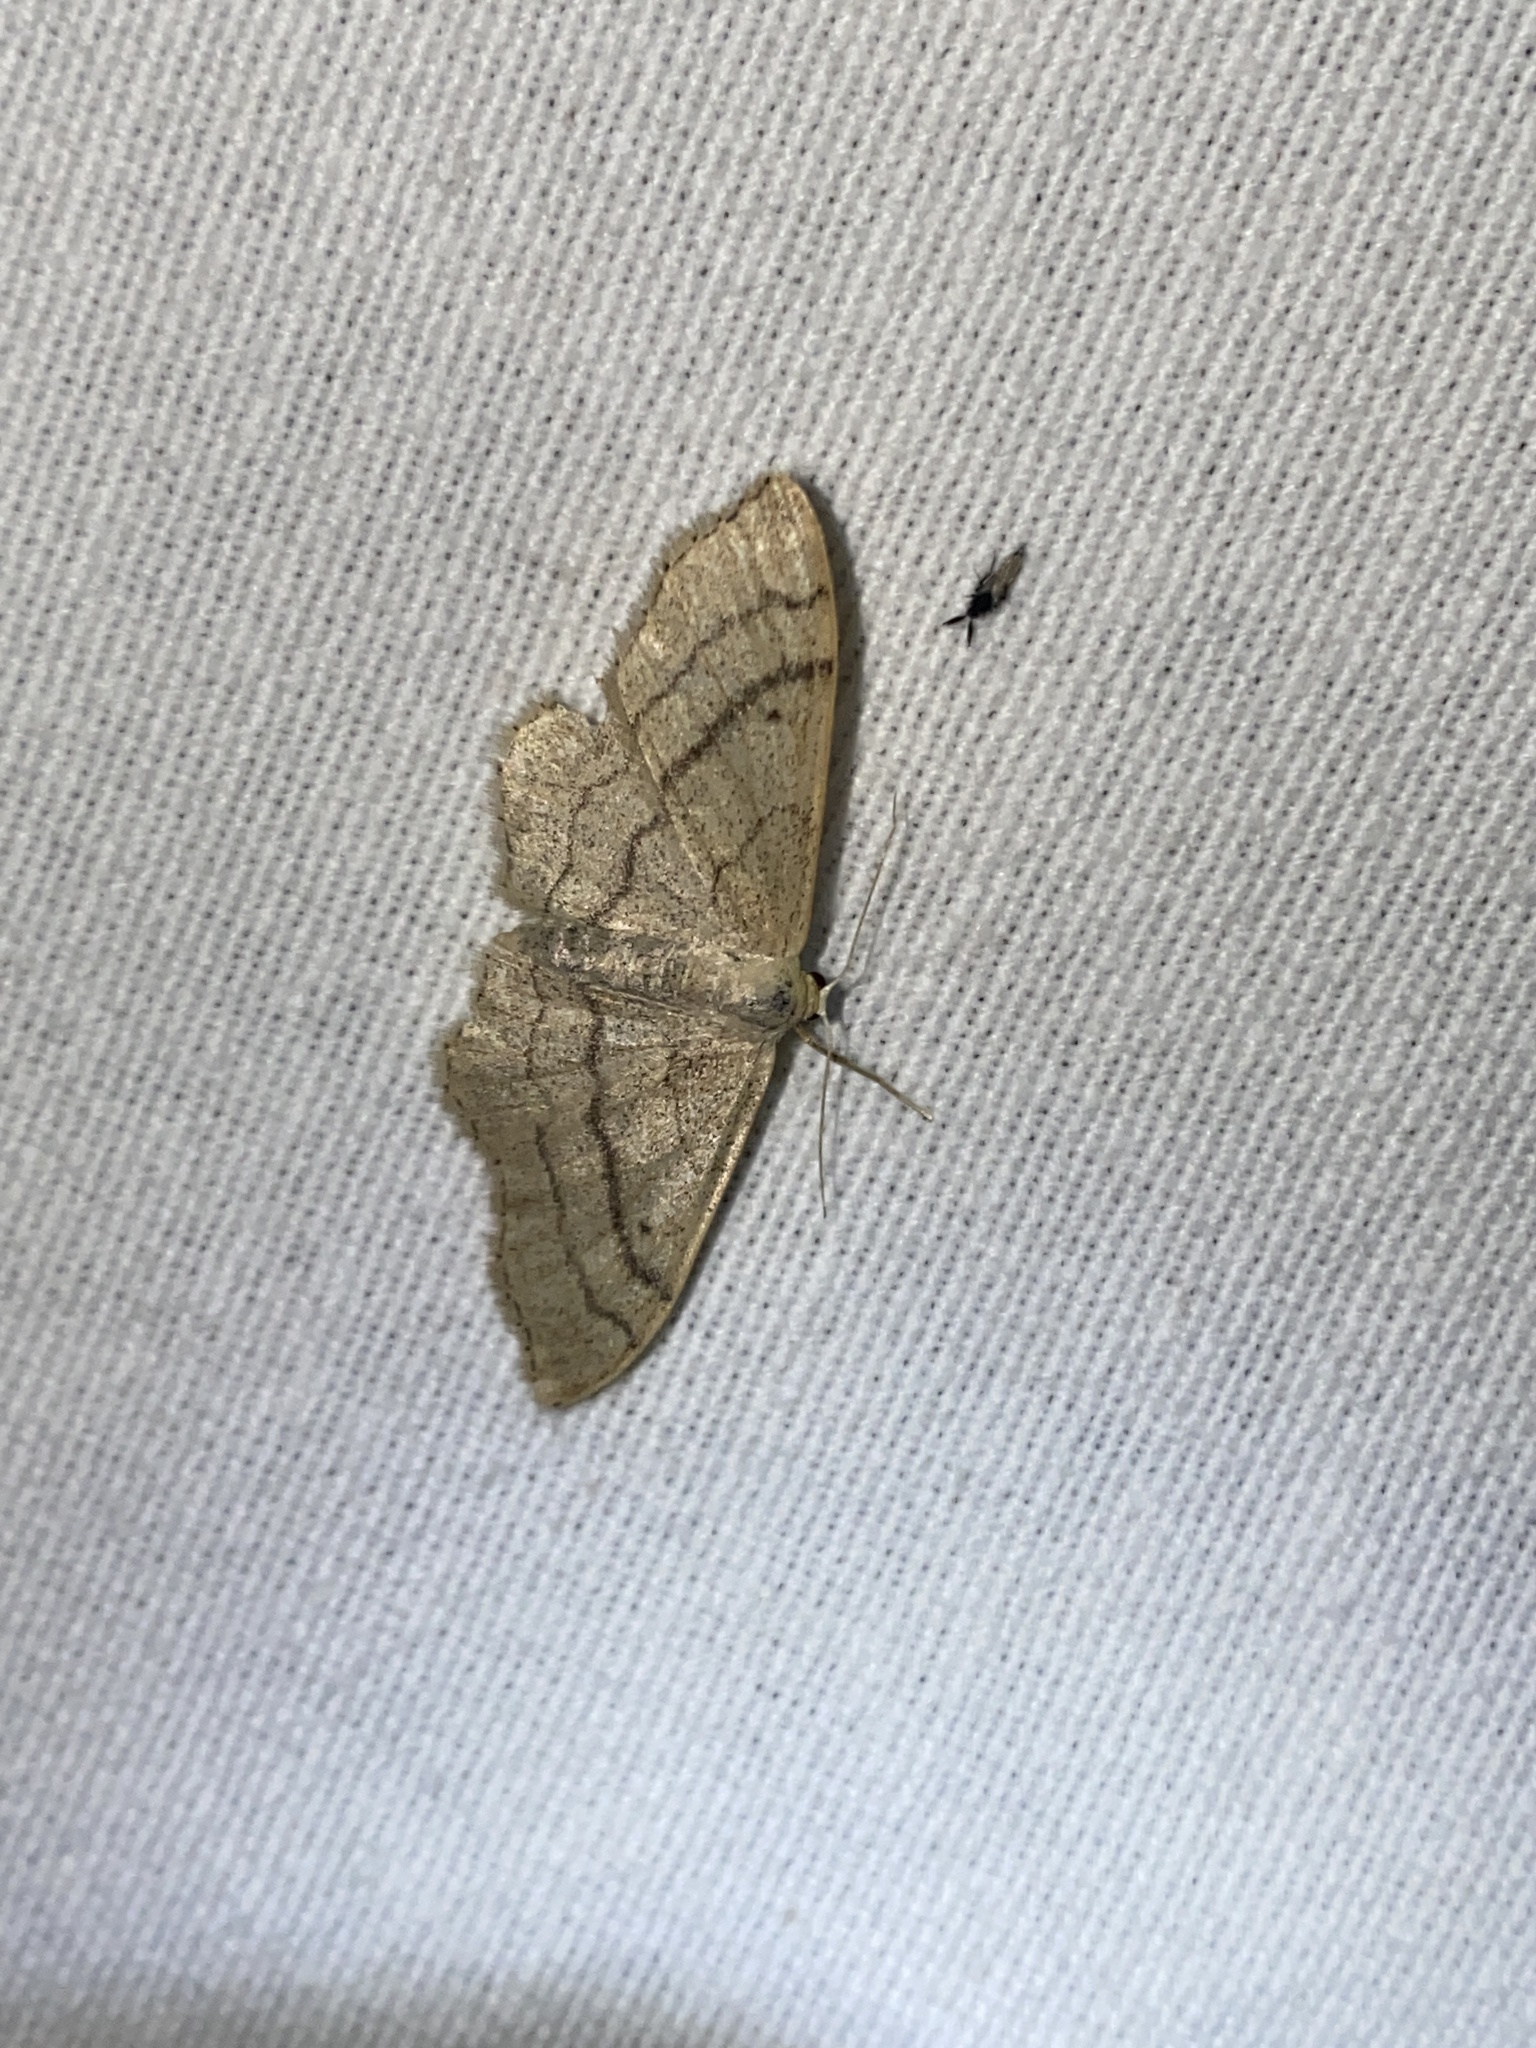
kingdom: Animalia
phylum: Arthropoda
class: Insecta
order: Lepidoptera
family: Geometridae
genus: Idaea
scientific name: Idaea aversata
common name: Riband wave
